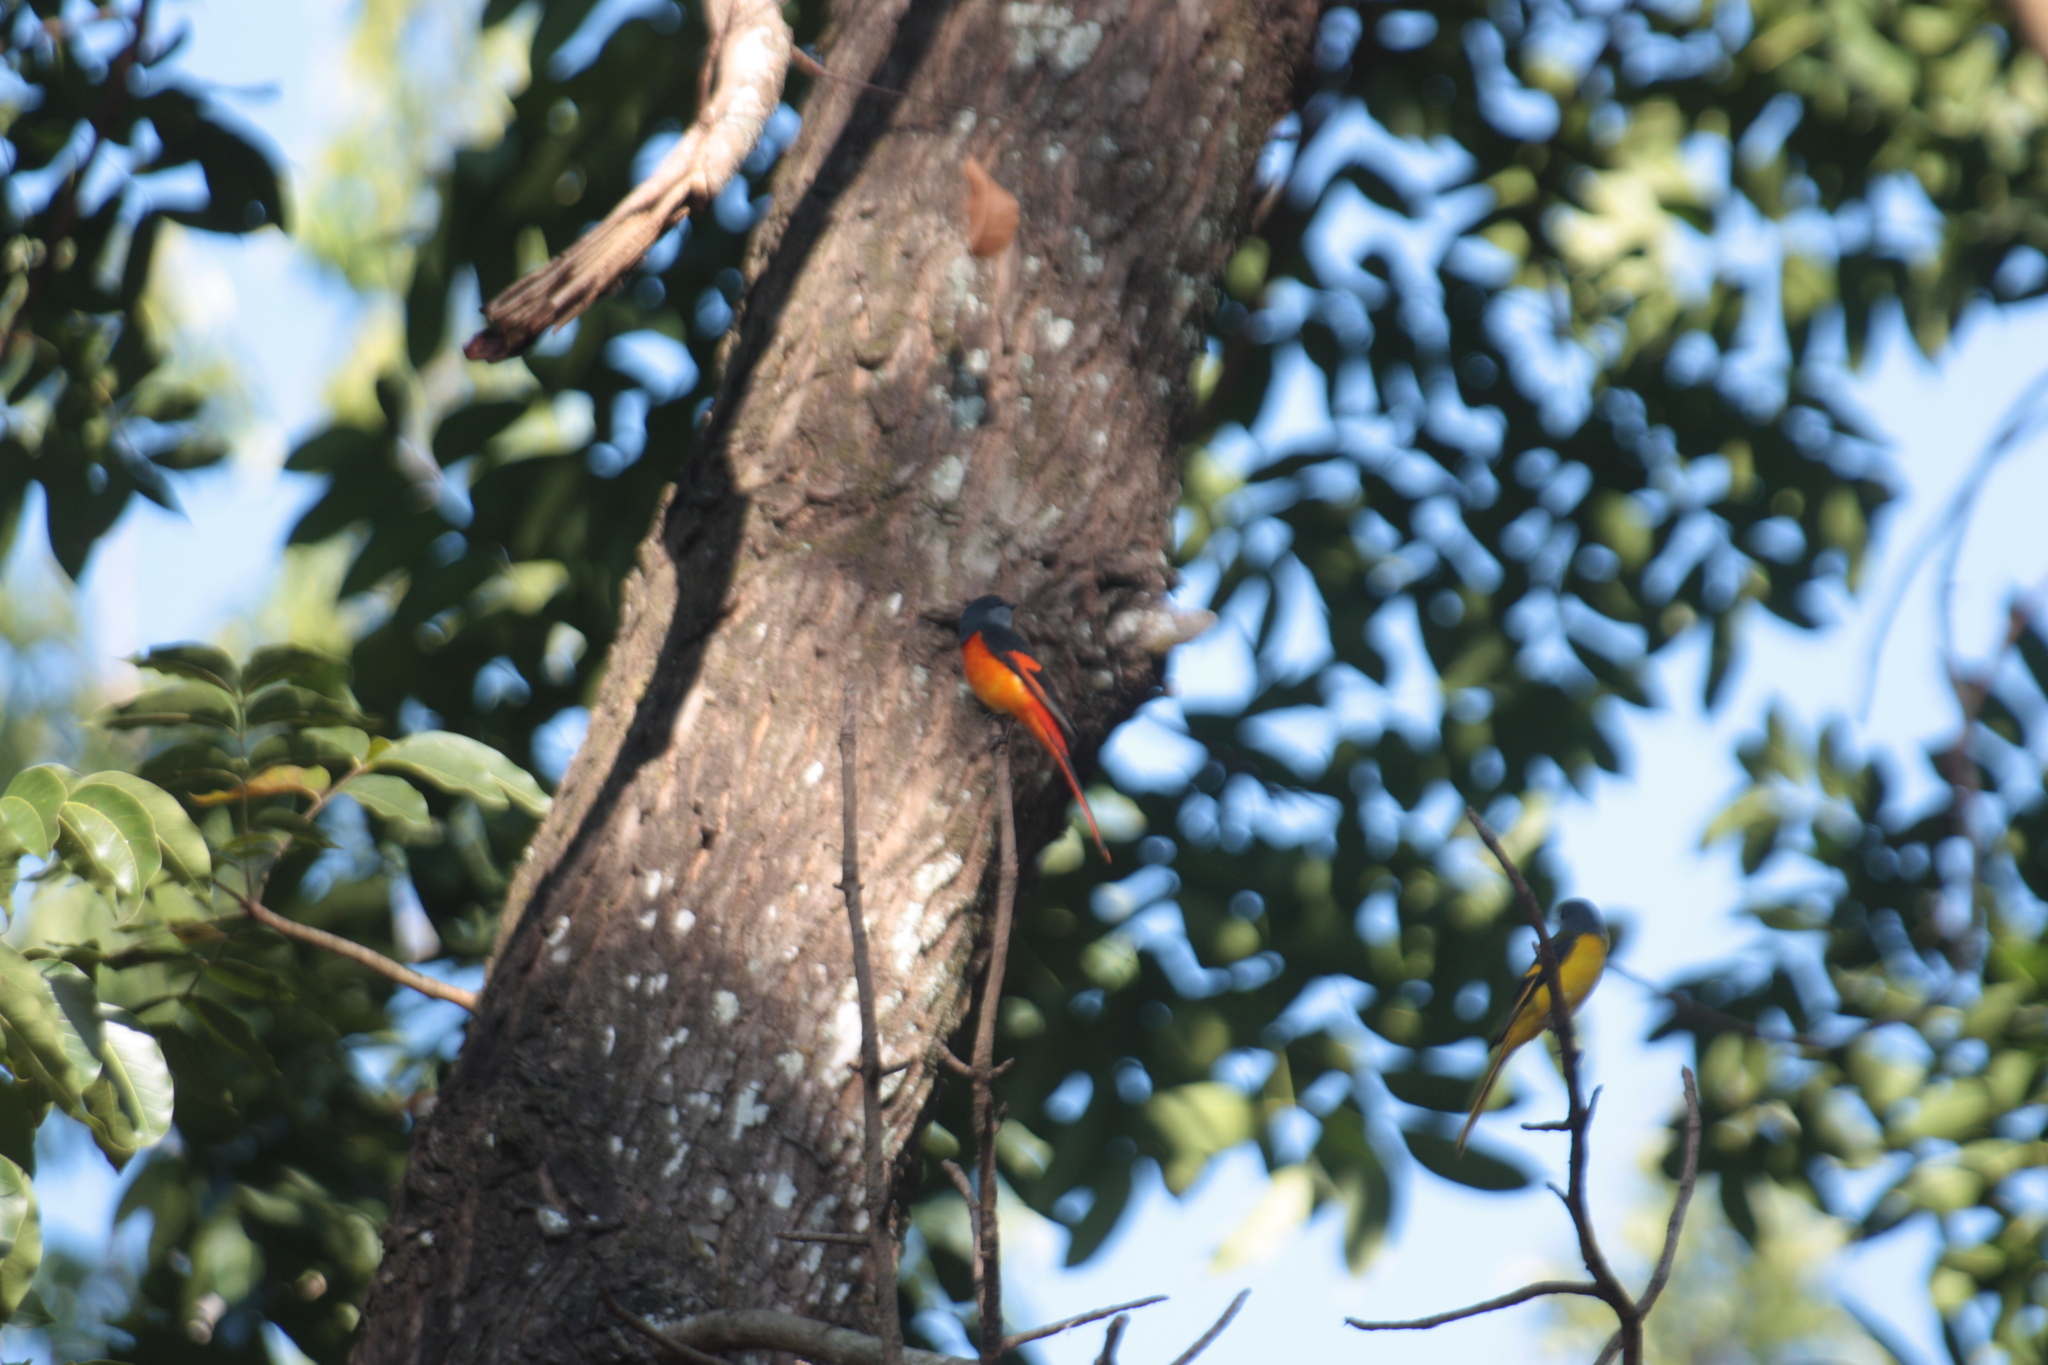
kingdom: Animalia
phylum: Chordata
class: Aves
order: Passeriformes
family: Campephagidae
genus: Pericrocotus
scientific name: Pericrocotus solaris
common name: Grey-chinned minivet
